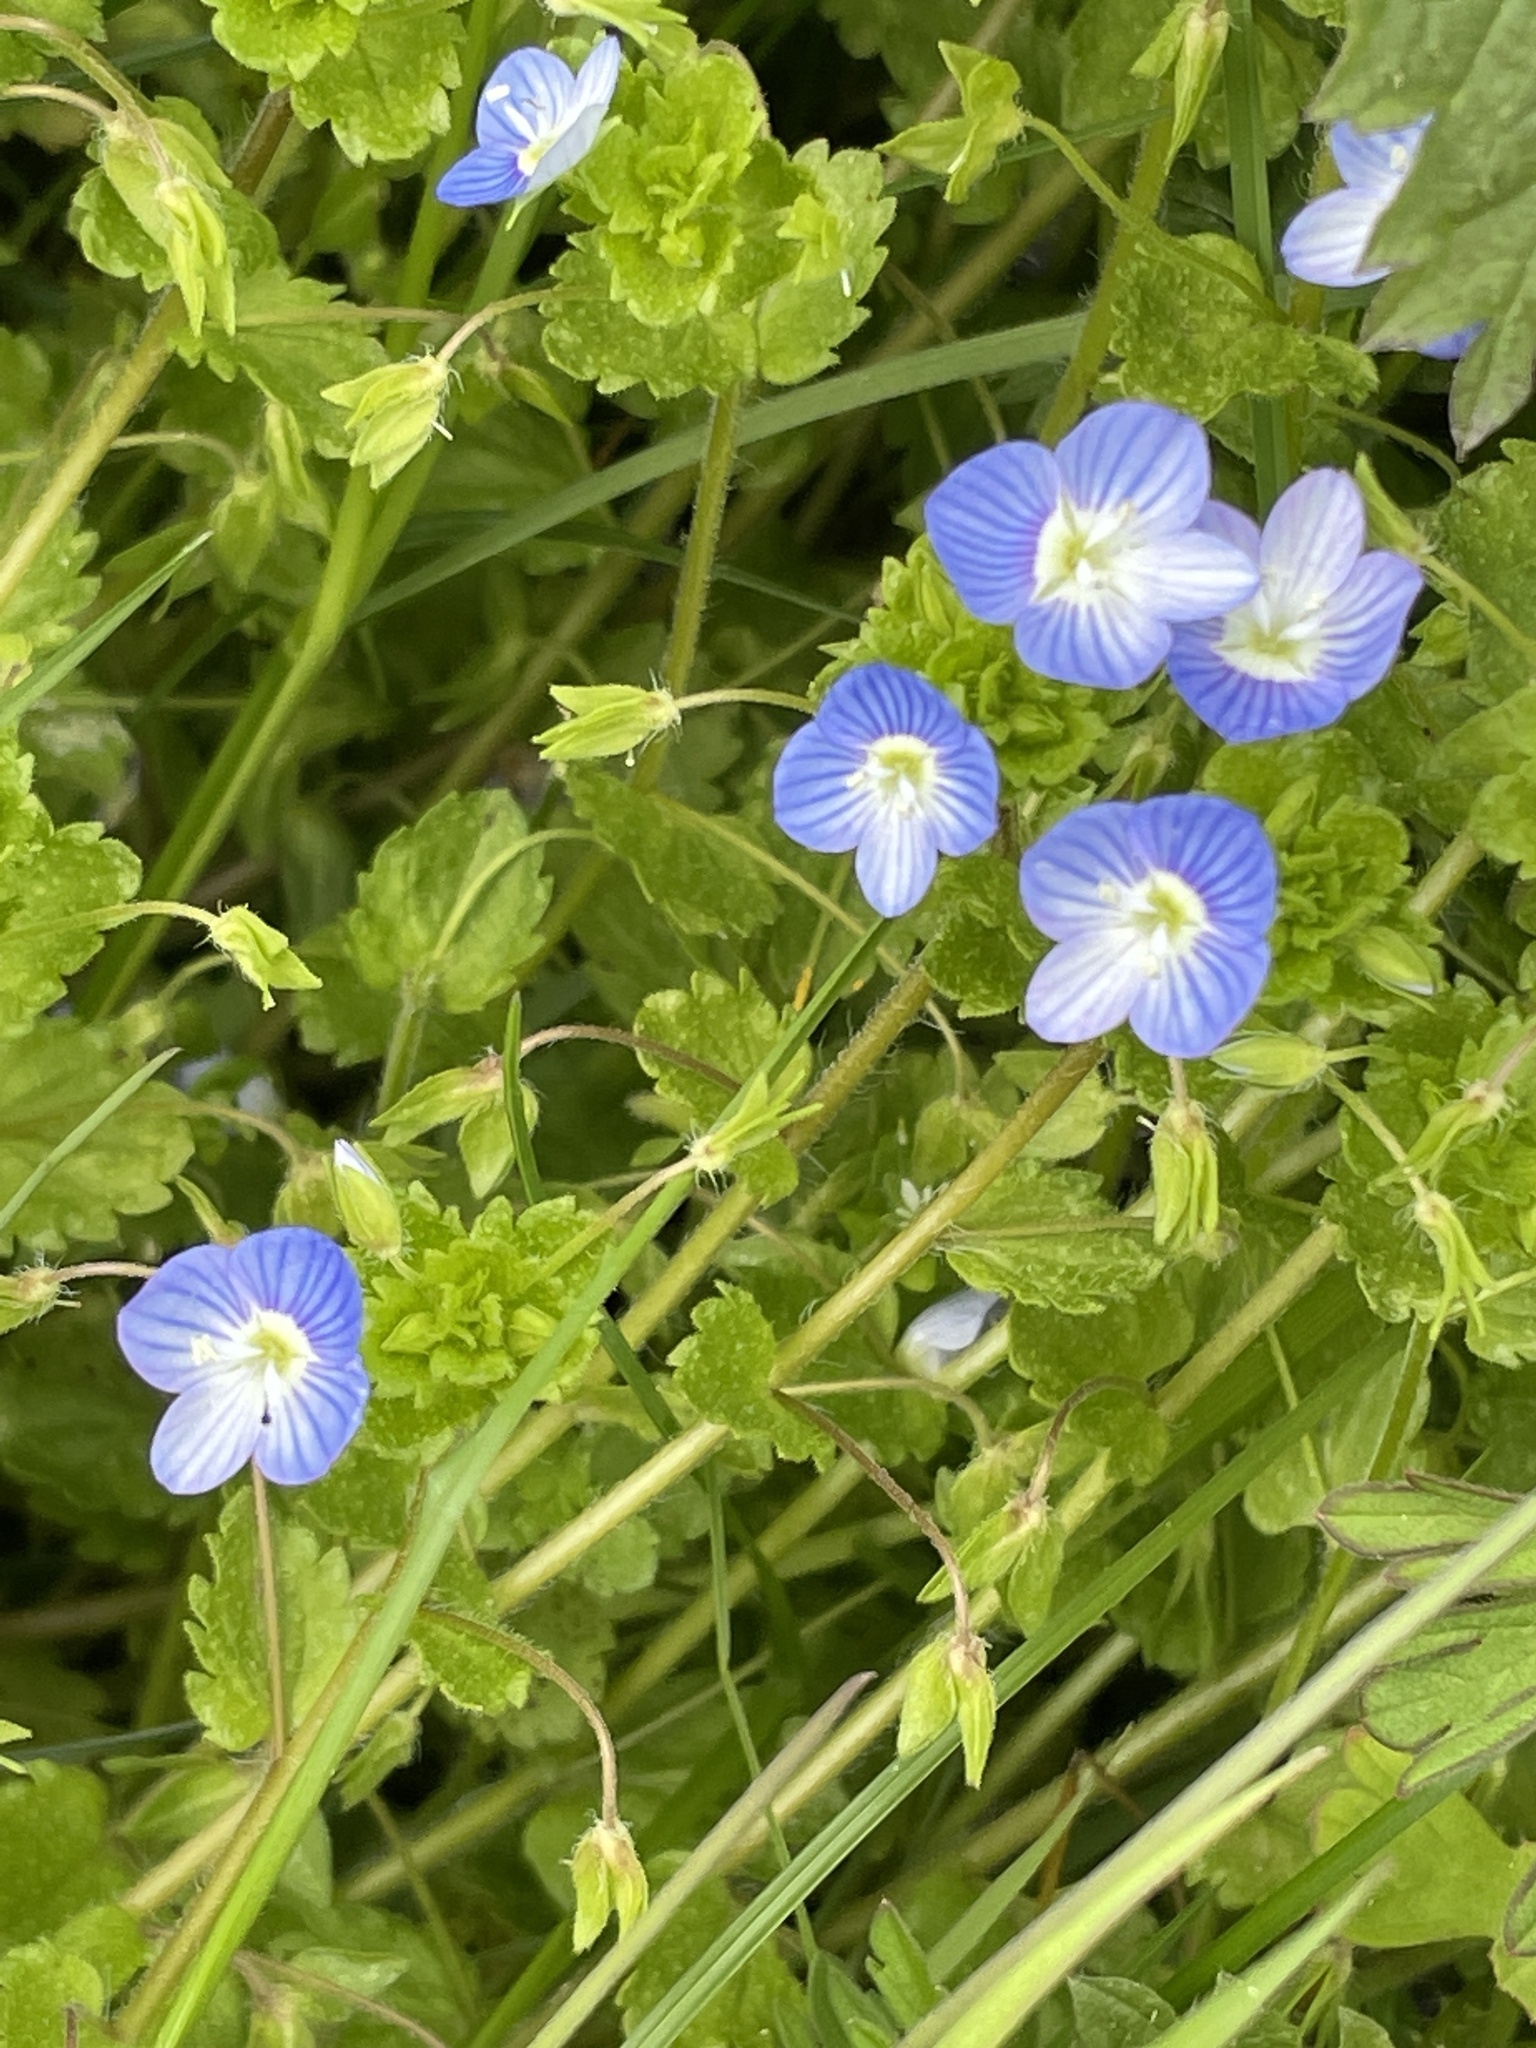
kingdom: Plantae
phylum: Tracheophyta
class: Magnoliopsida
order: Lamiales
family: Plantaginaceae
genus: Veronica
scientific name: Veronica persica
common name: Common field-speedwell
